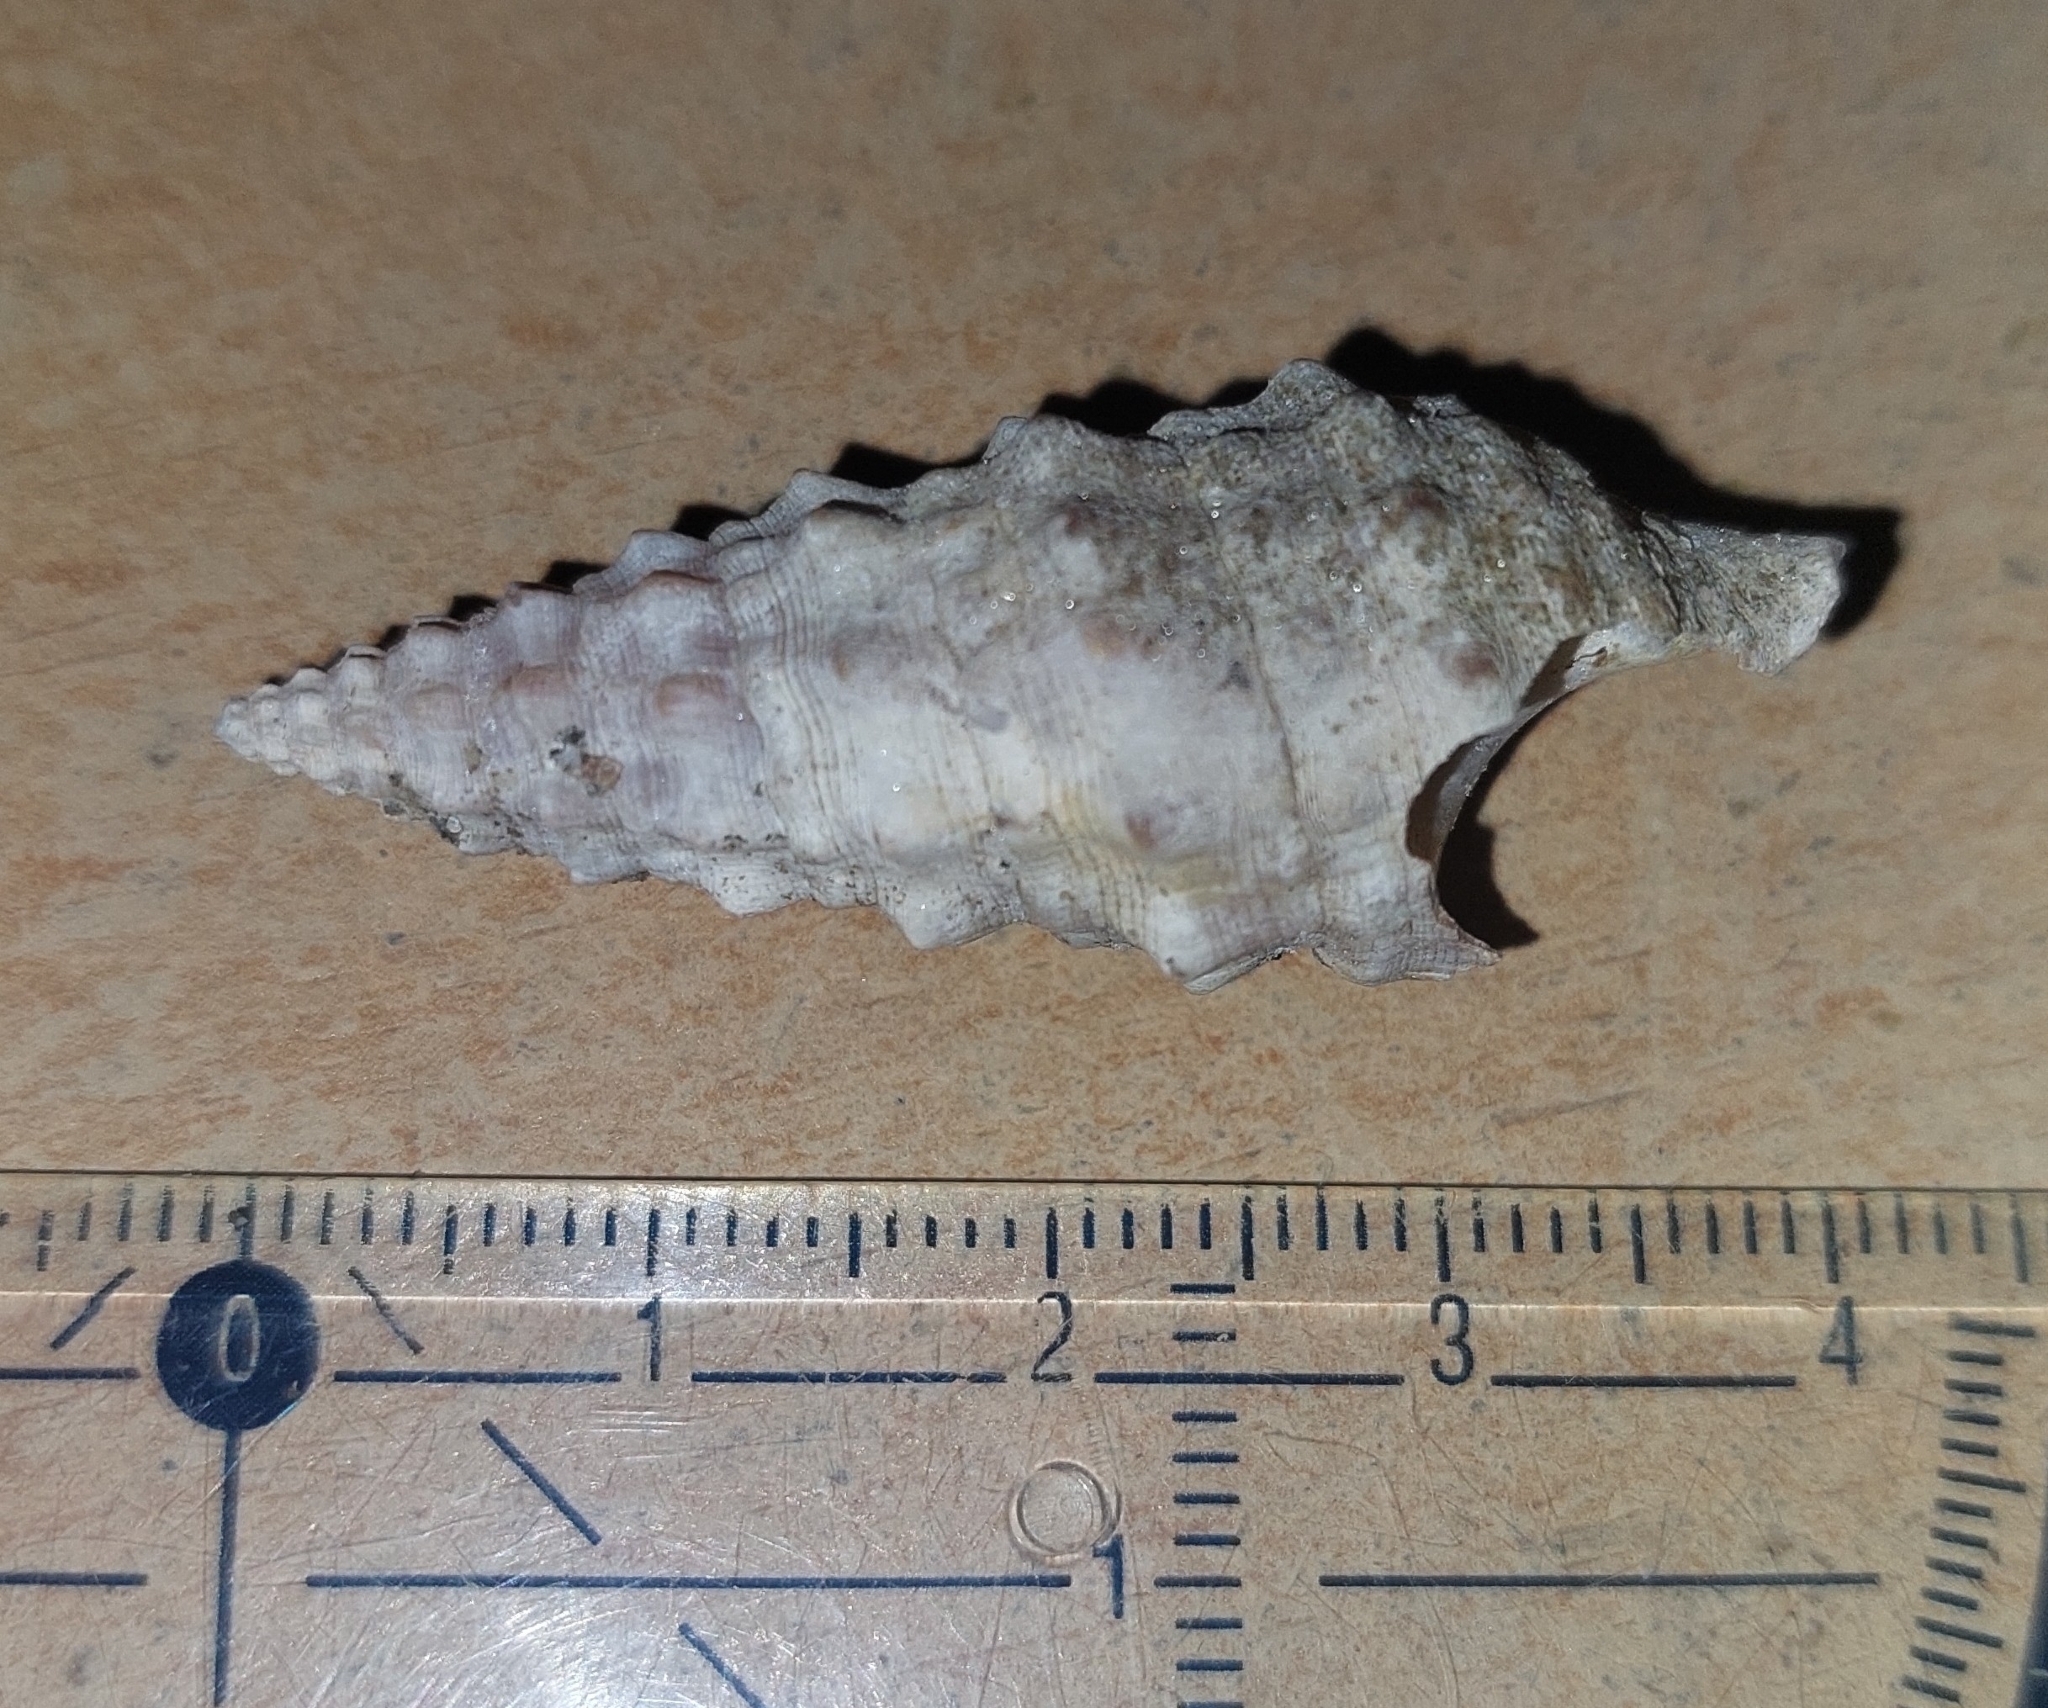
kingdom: Animalia
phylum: Mollusca
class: Gastropoda
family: Cerithiidae
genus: Cerithium
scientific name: Cerithium vulgatum
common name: European cerith
